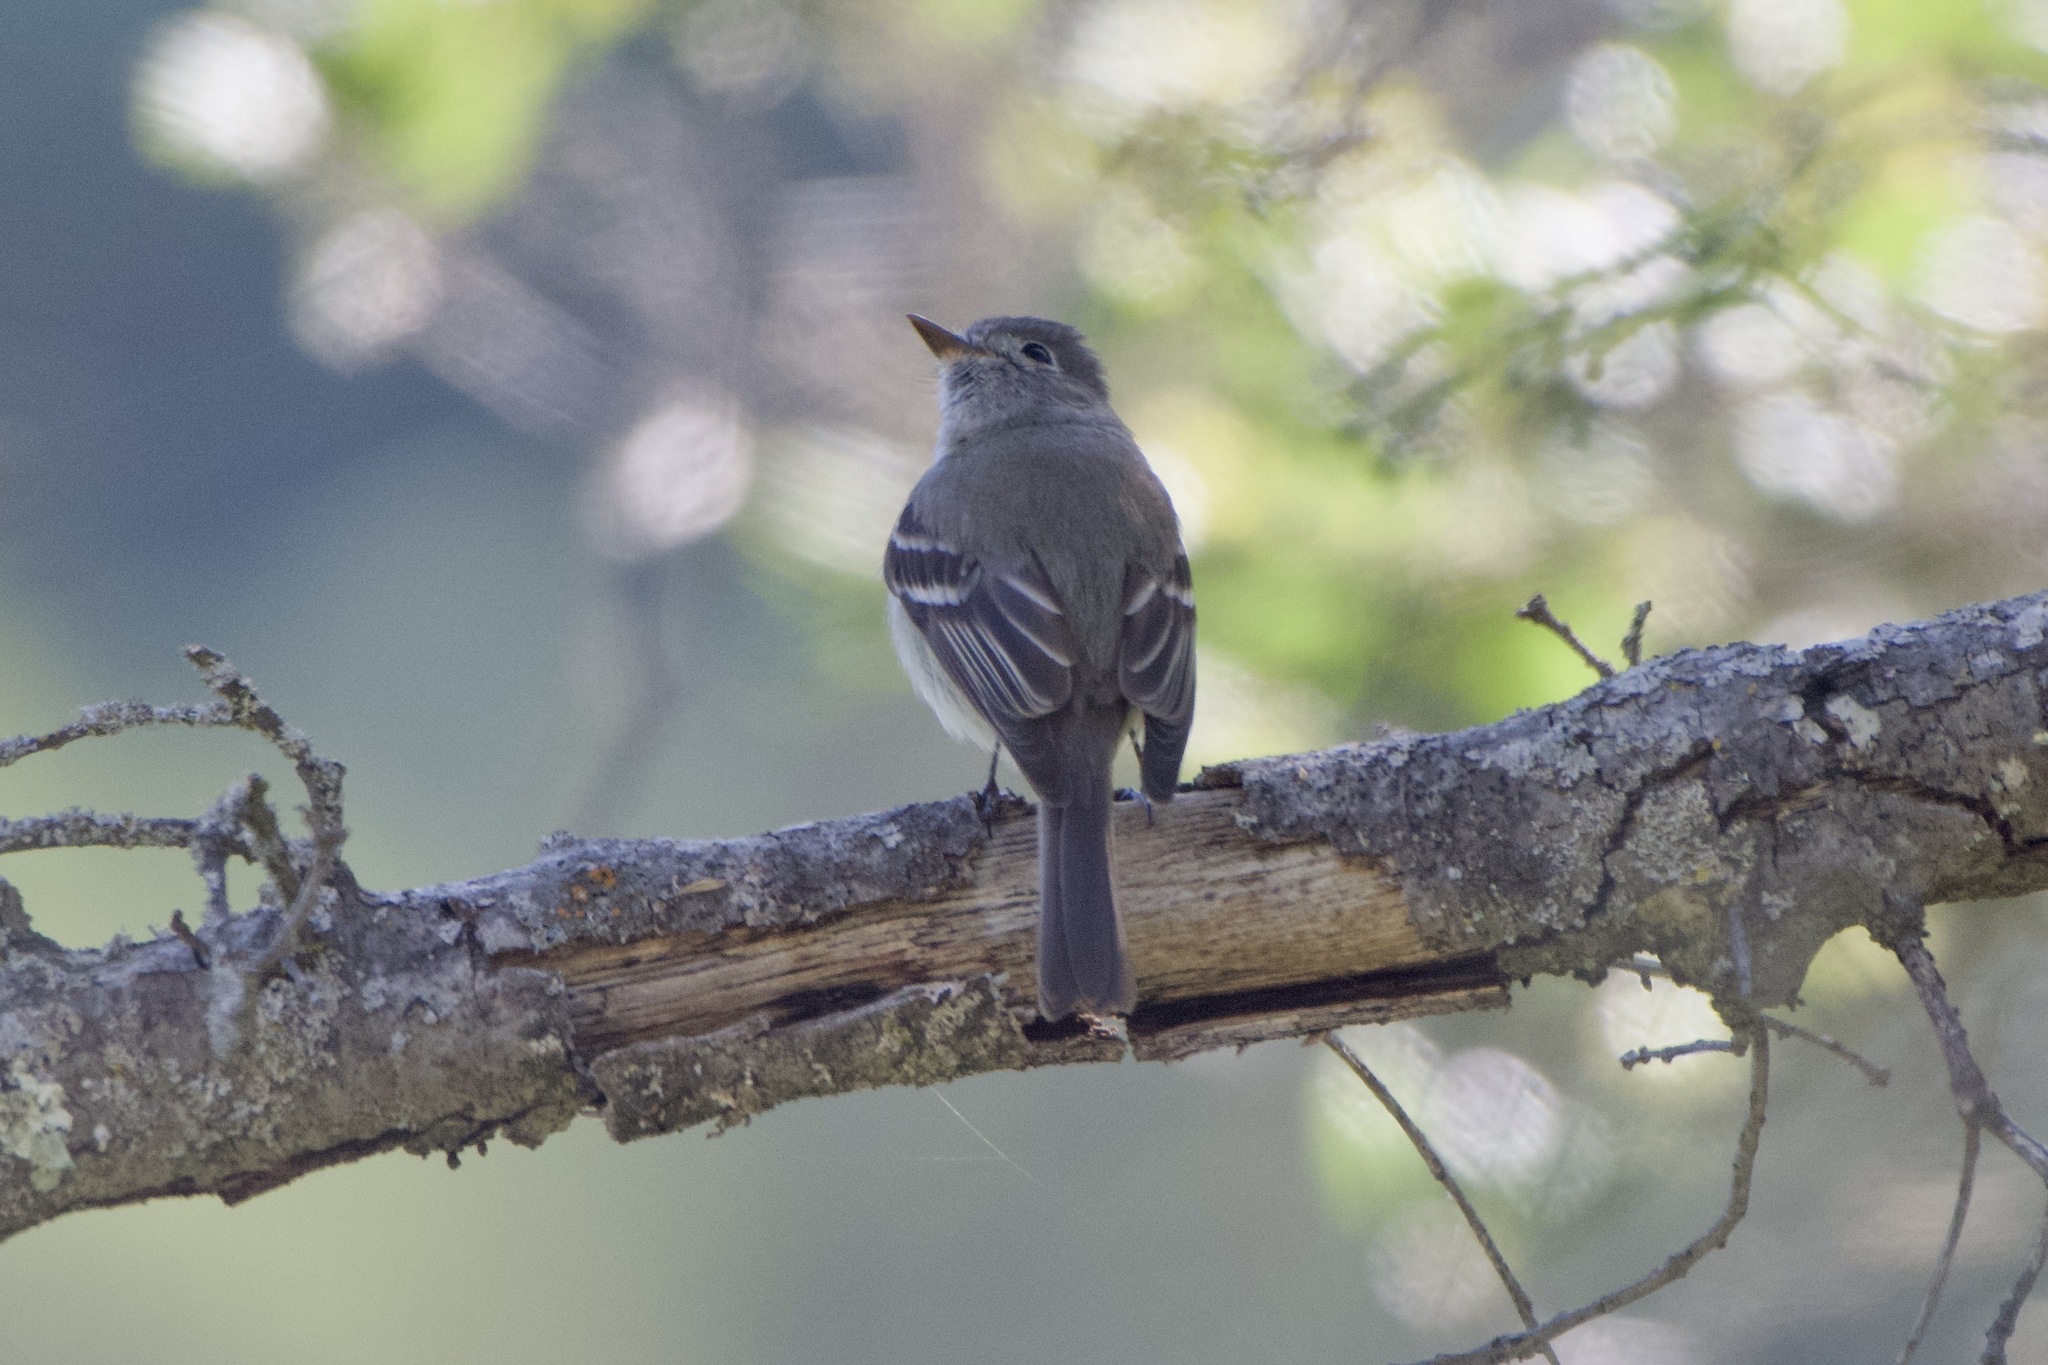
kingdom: Animalia
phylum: Chordata
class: Aves
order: Passeriformes
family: Tyrannidae
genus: Empidonax
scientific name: Empidonax hammondii
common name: Hammond's flycatcher
